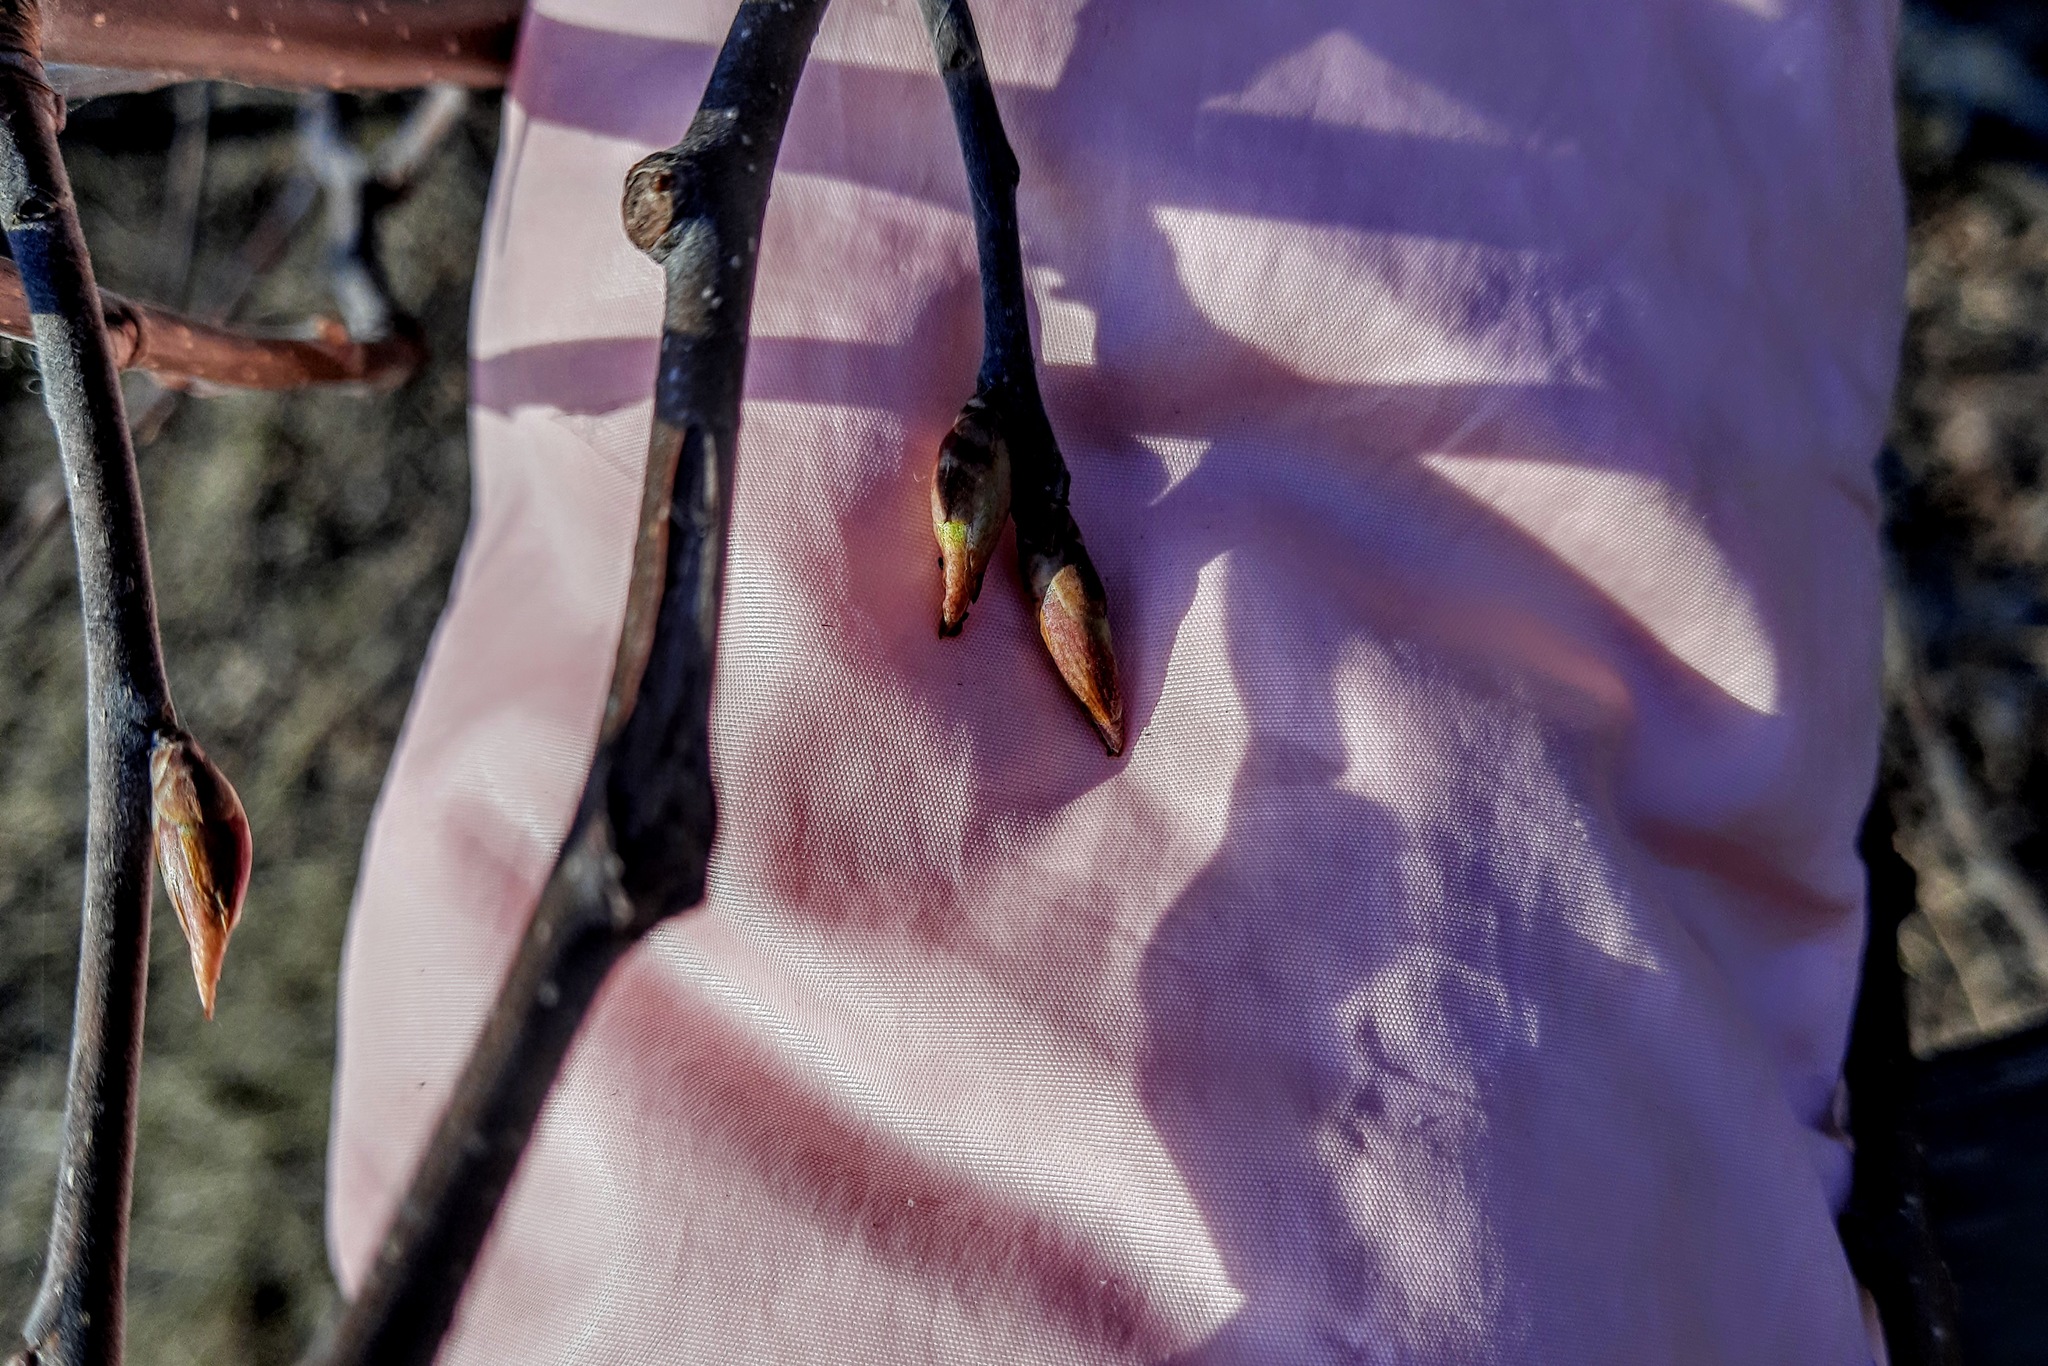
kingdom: Plantae
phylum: Tracheophyta
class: Magnoliopsida
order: Rosales
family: Rosaceae
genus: Prunus
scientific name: Prunus padus
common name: Bird cherry
